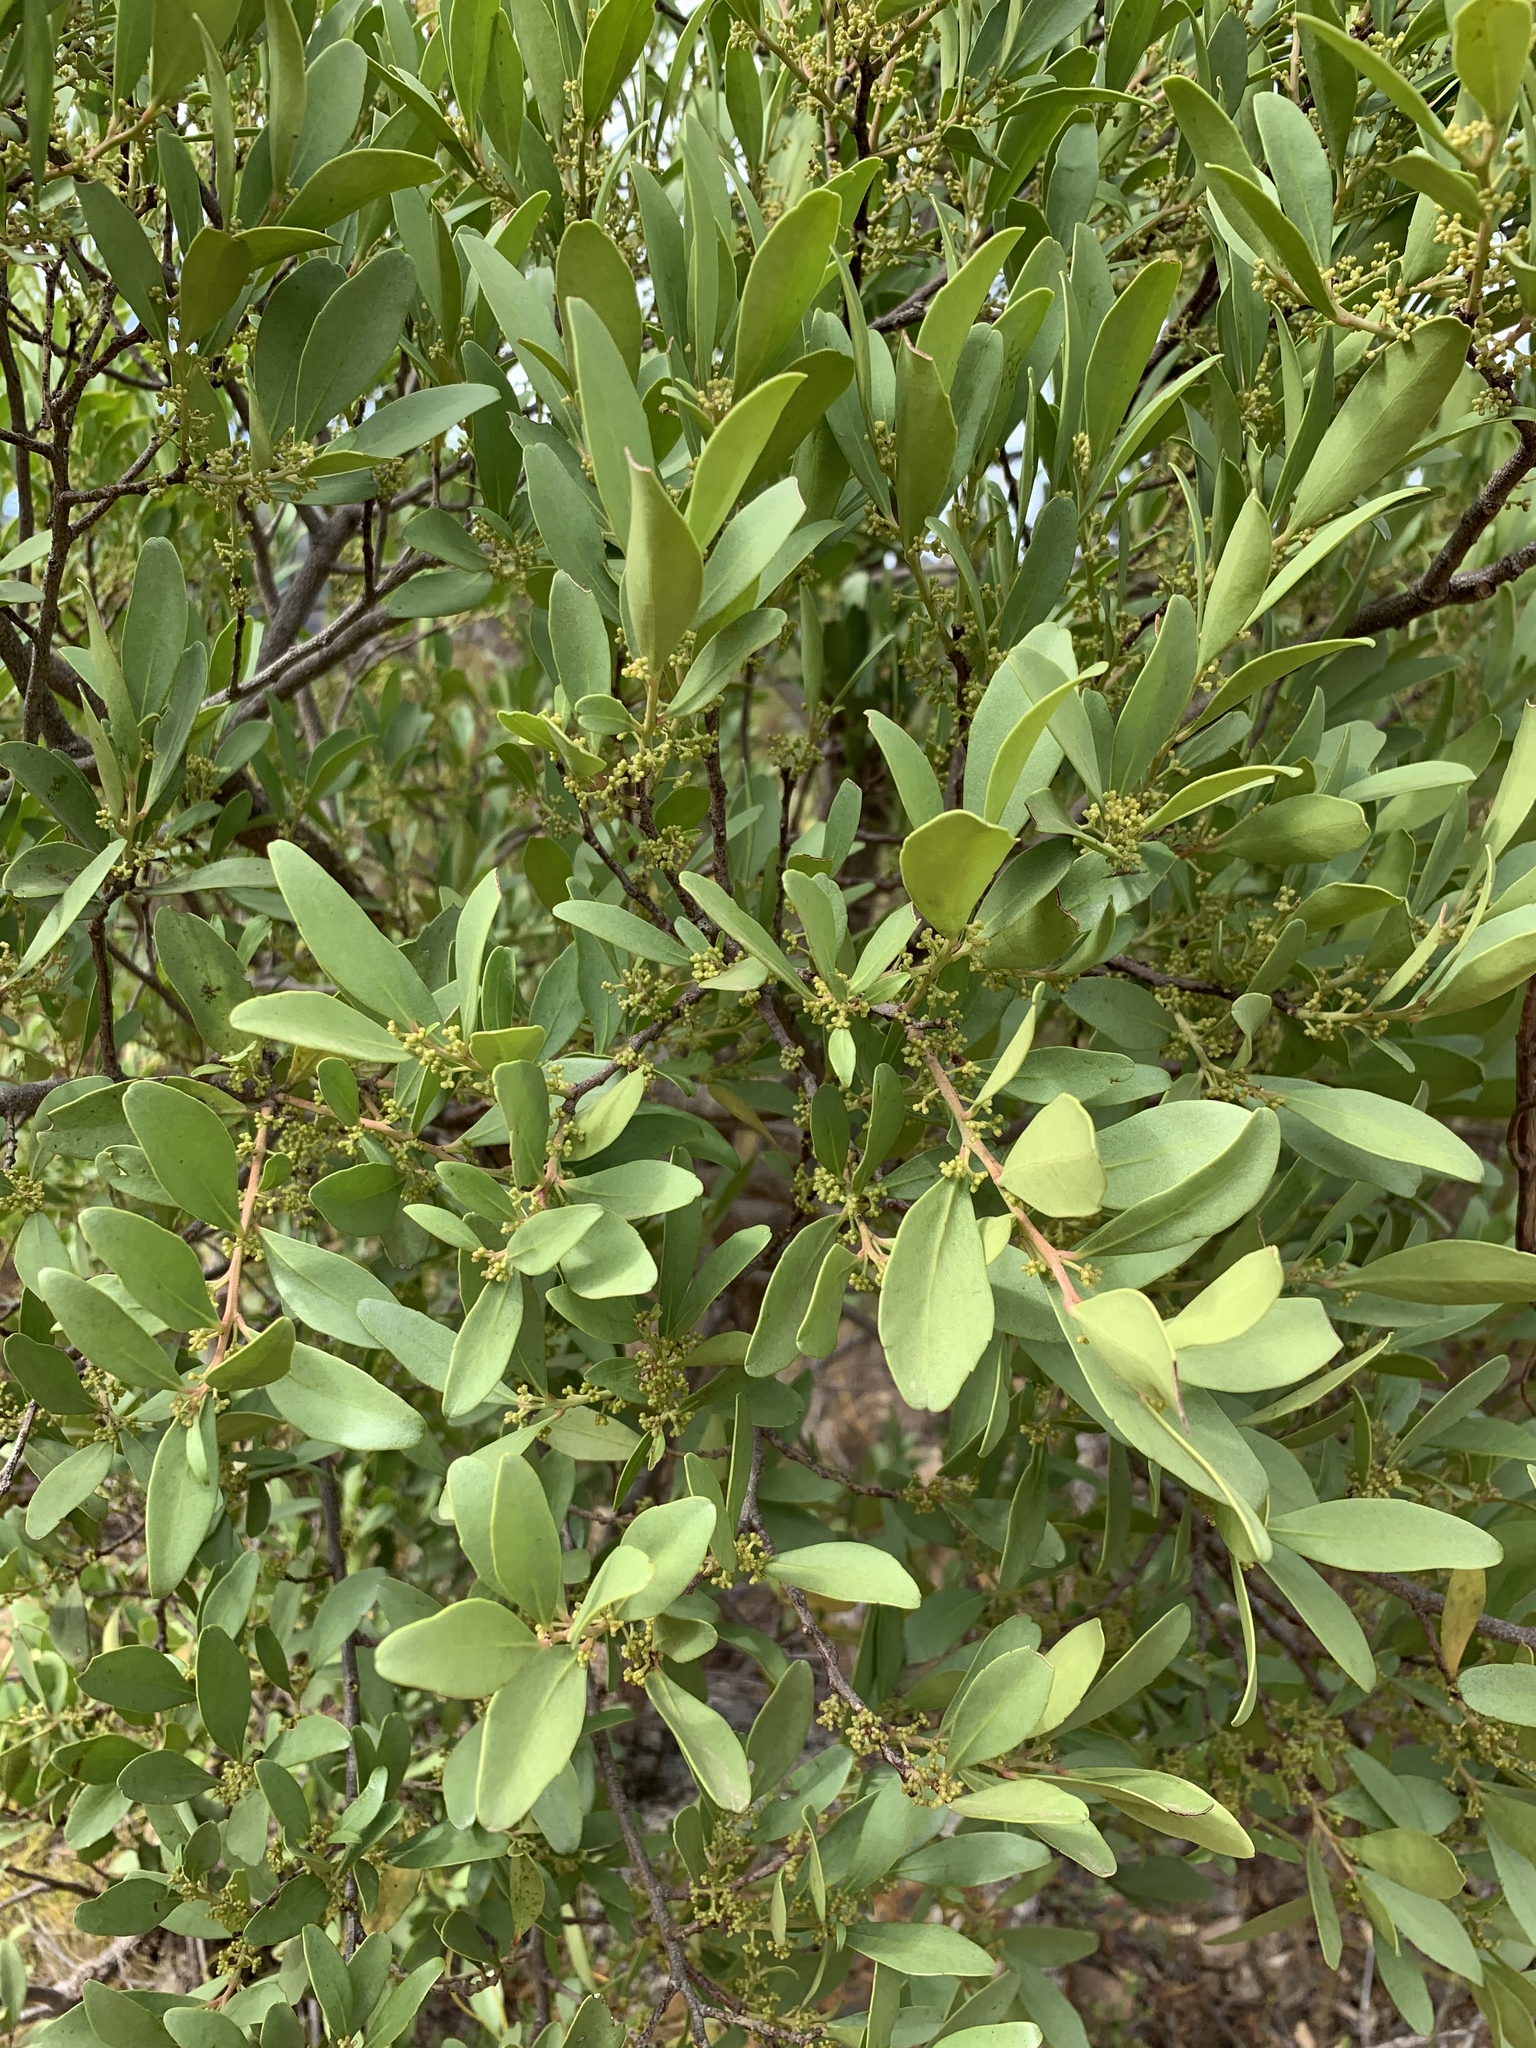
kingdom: Plantae
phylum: Tracheophyta
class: Magnoliopsida
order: Celastrales
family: Celastraceae
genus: Gymnosporia
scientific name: Gymnosporia laurina
